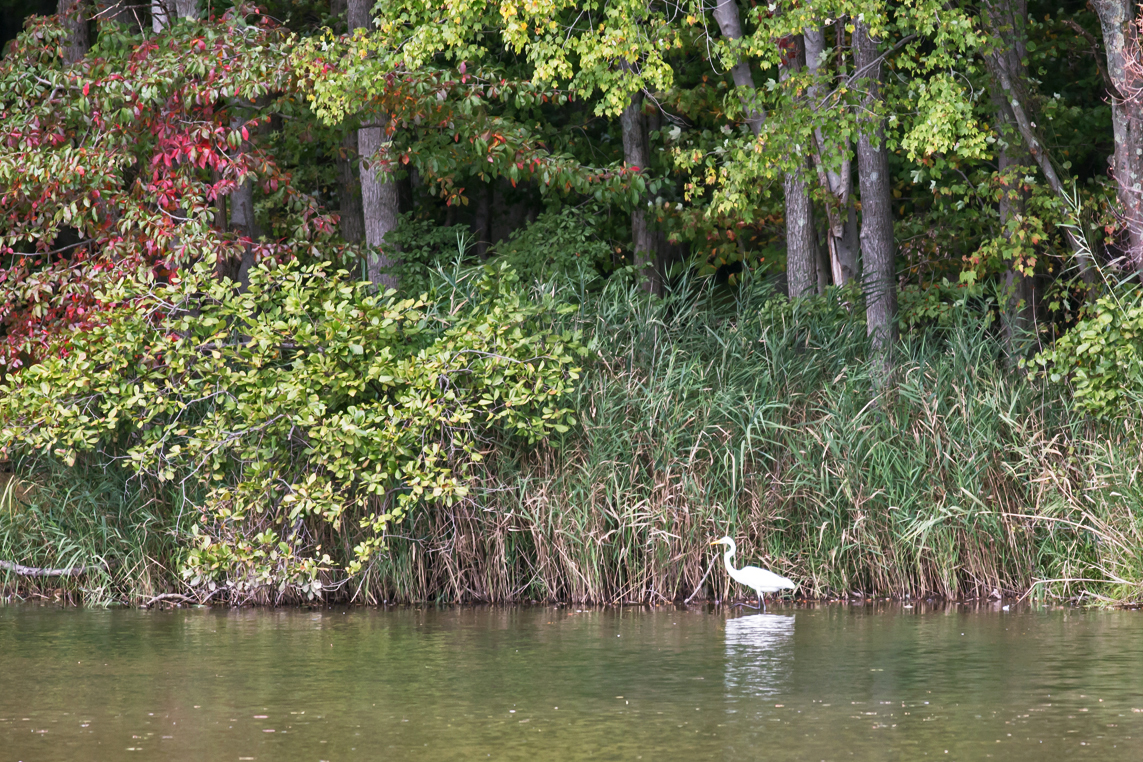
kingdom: Animalia
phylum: Chordata
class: Aves
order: Pelecaniformes
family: Ardeidae
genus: Ardea
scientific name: Ardea alba
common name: Great egret
